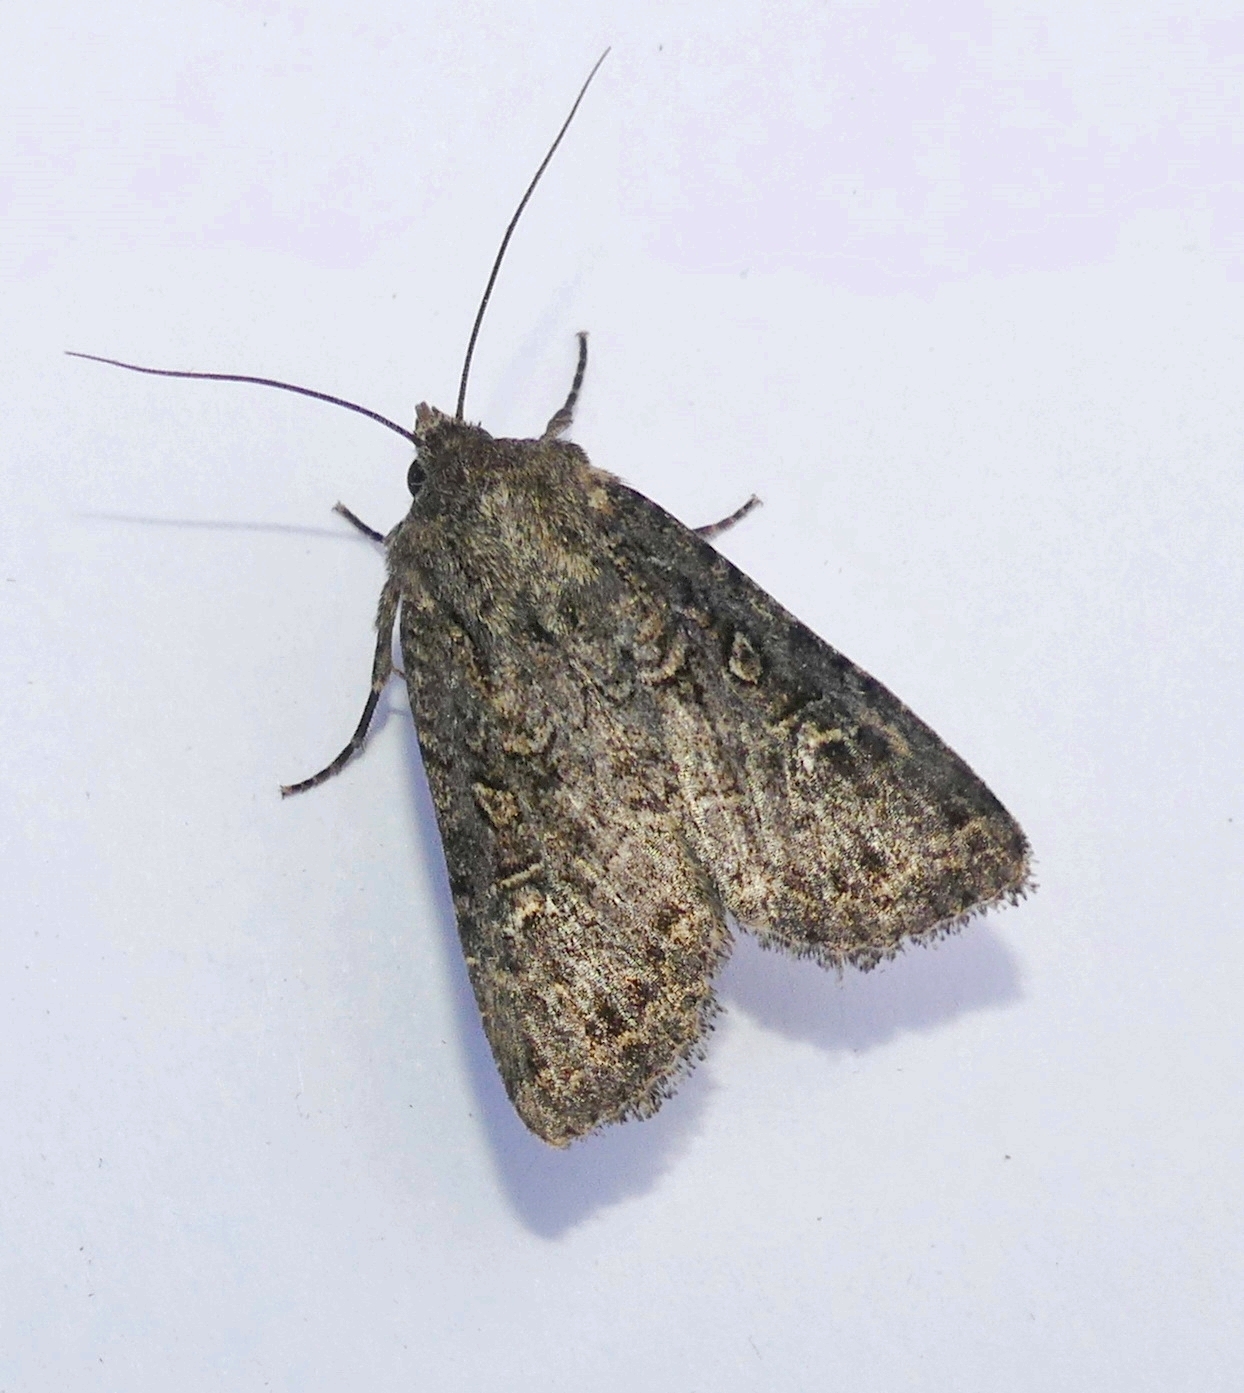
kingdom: Animalia
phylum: Arthropoda
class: Insecta
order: Lepidoptera
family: Noctuidae
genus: Apamea
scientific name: Apamea devastator
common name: Glassy cutworm
